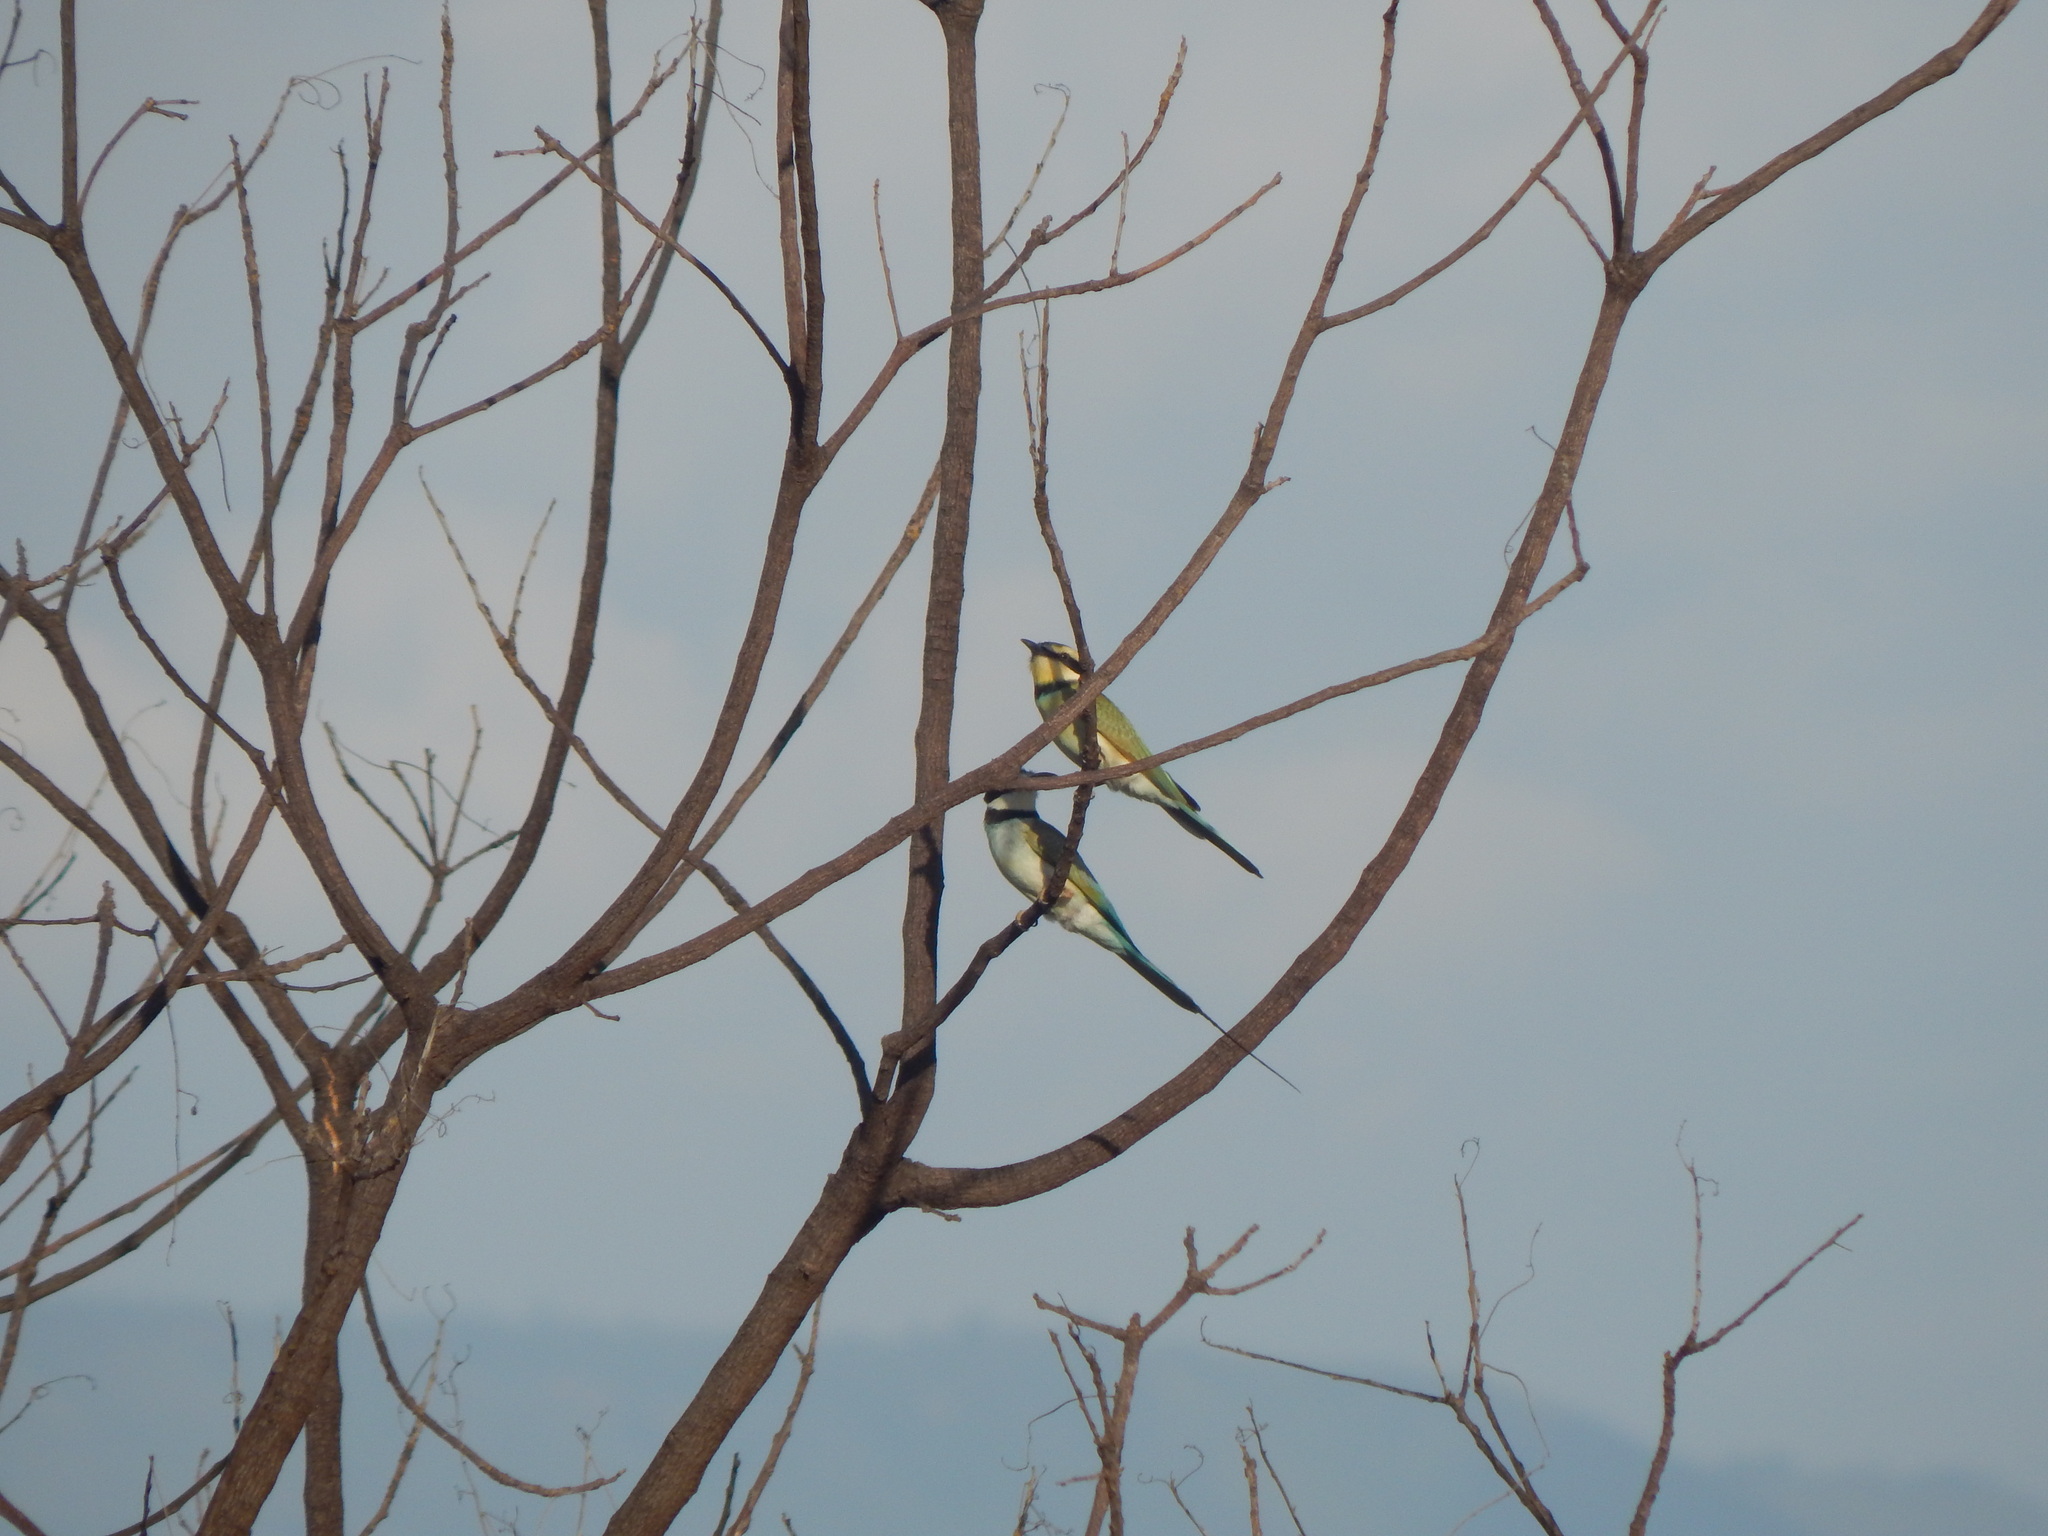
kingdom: Animalia
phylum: Chordata
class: Aves
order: Coraciiformes
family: Meropidae
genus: Merops
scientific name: Merops albicollis
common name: White-throated bee-eater
